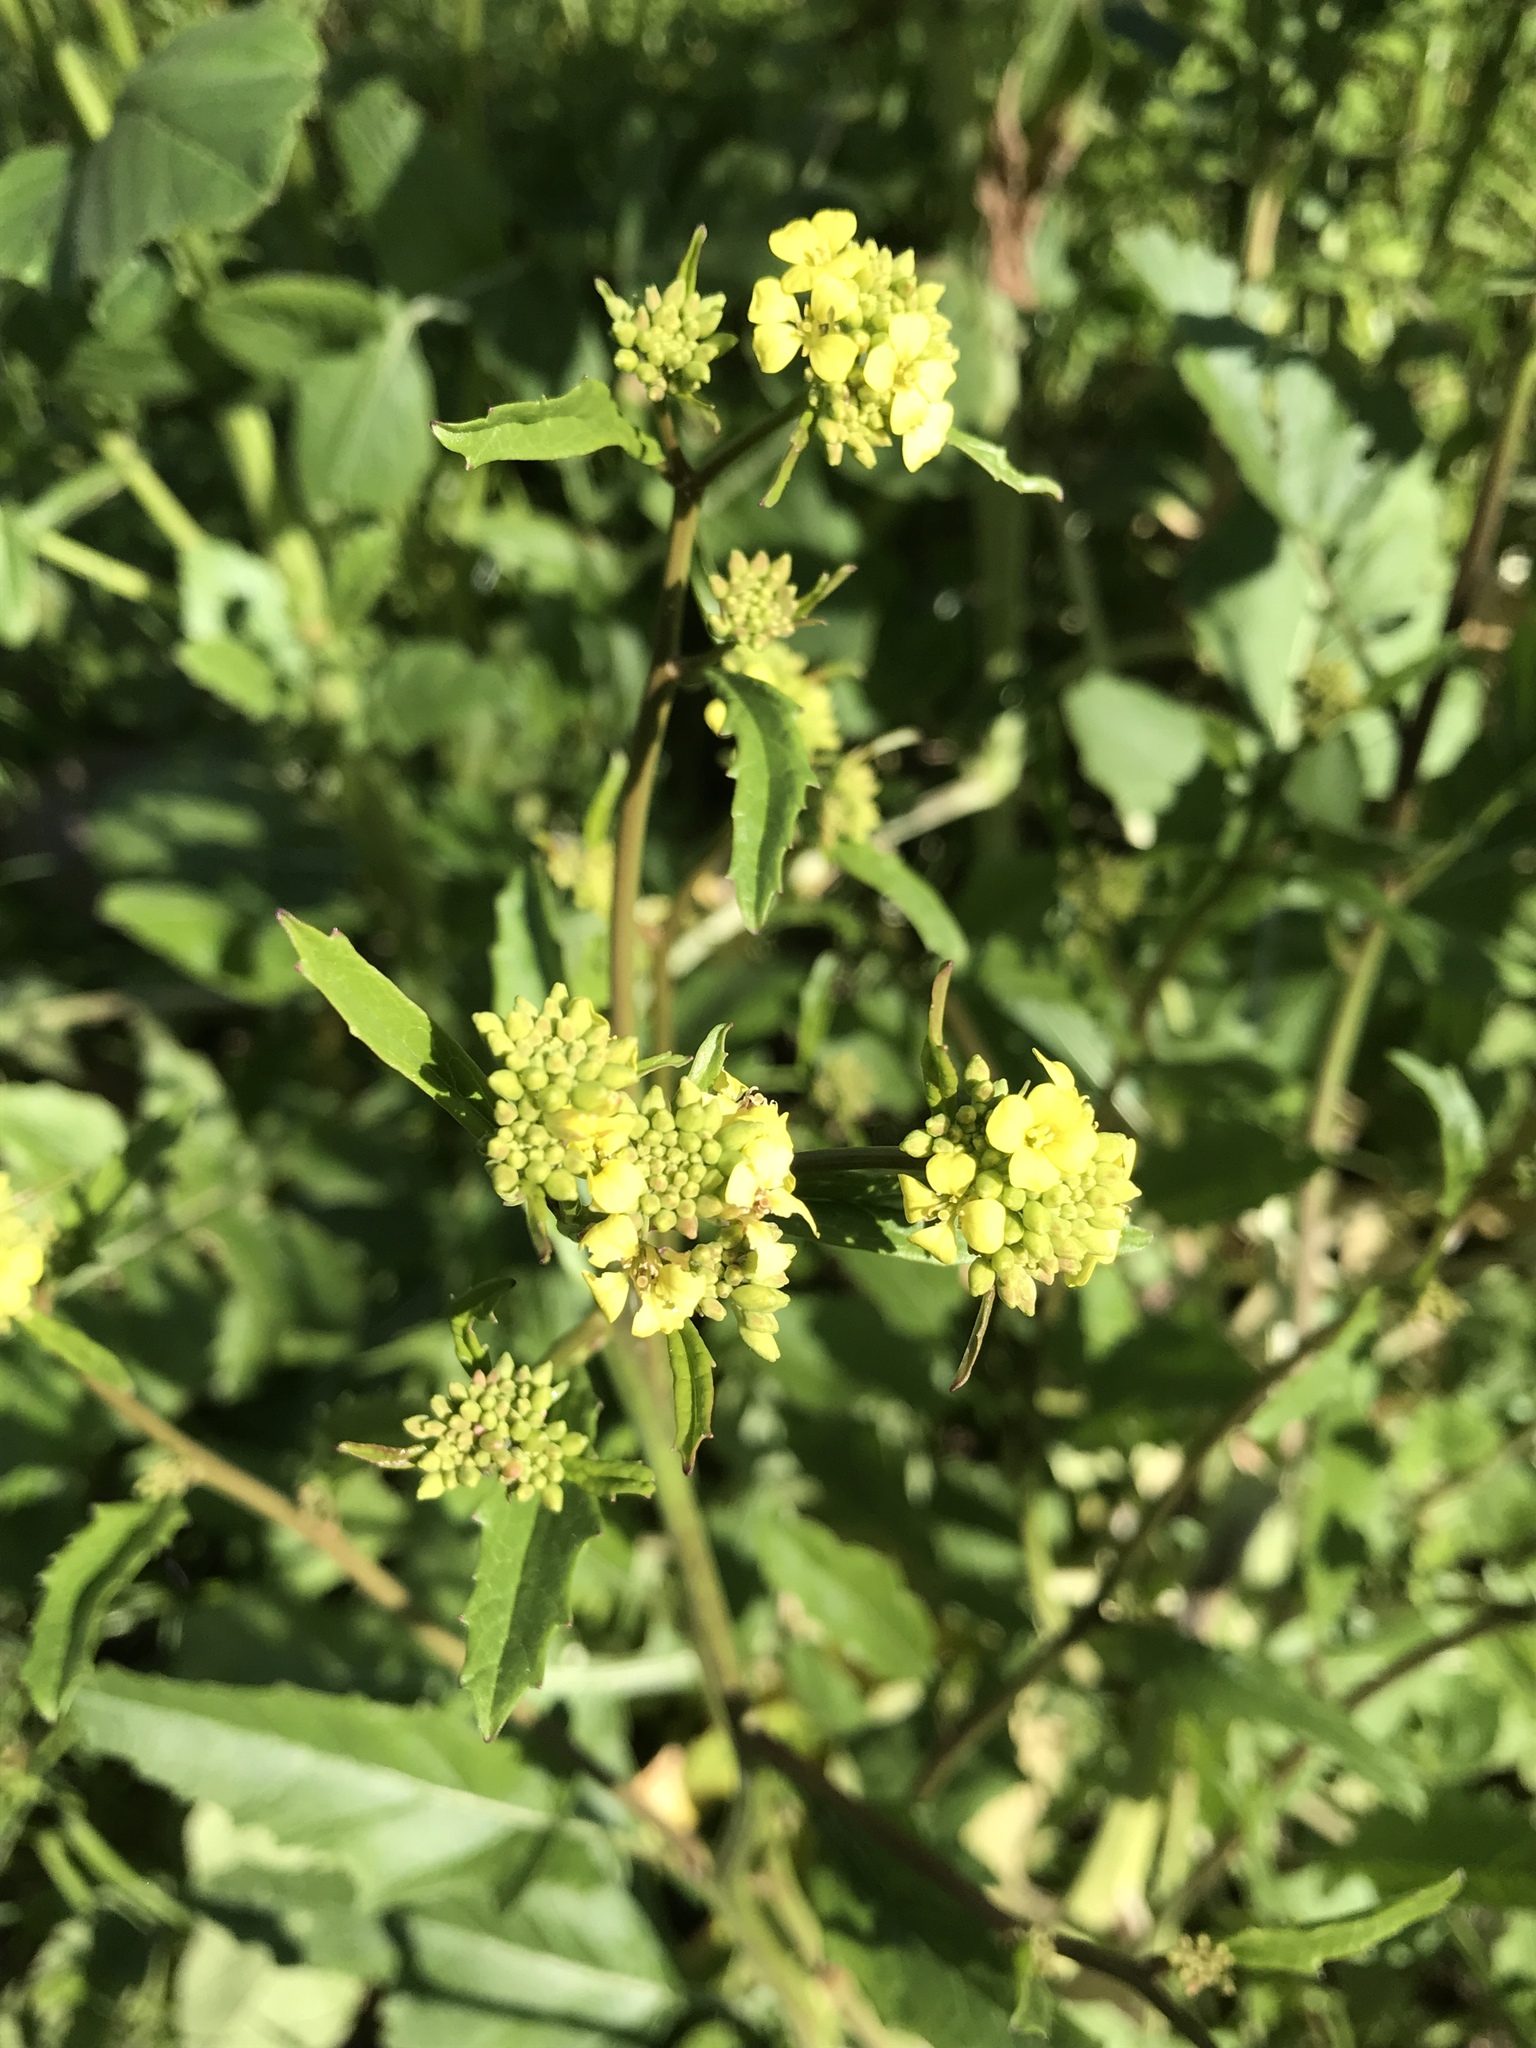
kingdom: Plantae
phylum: Tracheophyta
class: Magnoliopsida
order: Brassicales
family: Brassicaceae
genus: Rapistrum
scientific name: Rapistrum rugosum
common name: Annual bastardcabbage
